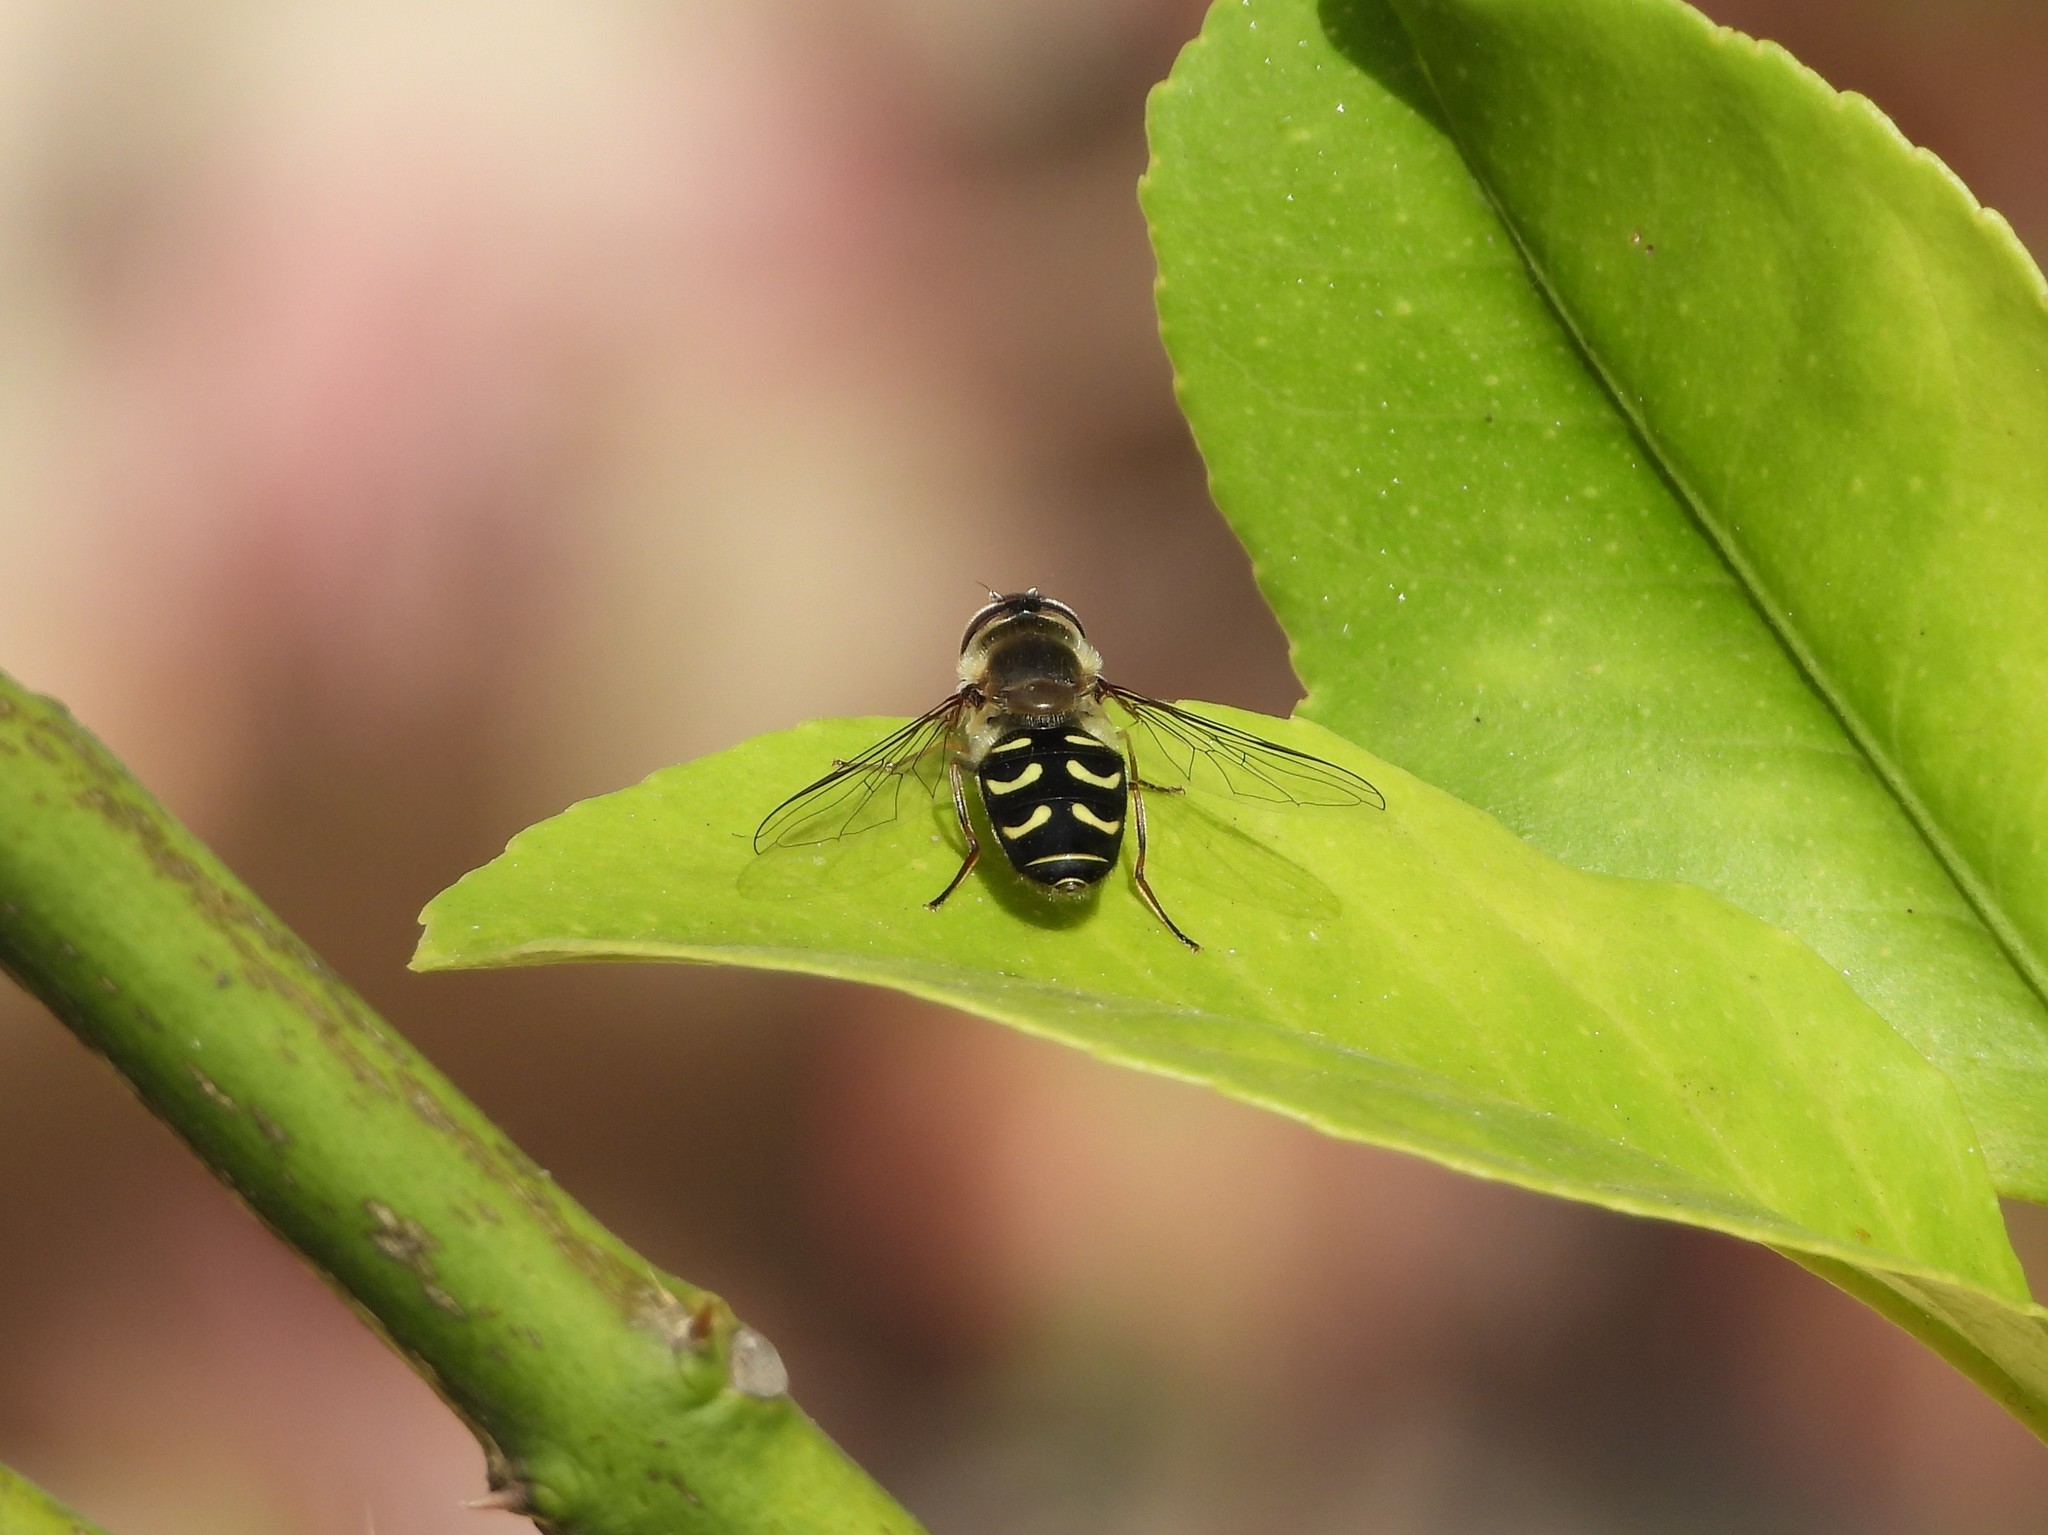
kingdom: Animalia
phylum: Arthropoda
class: Insecta
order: Diptera
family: Syrphidae
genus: Scaeva
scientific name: Scaeva selenitica
